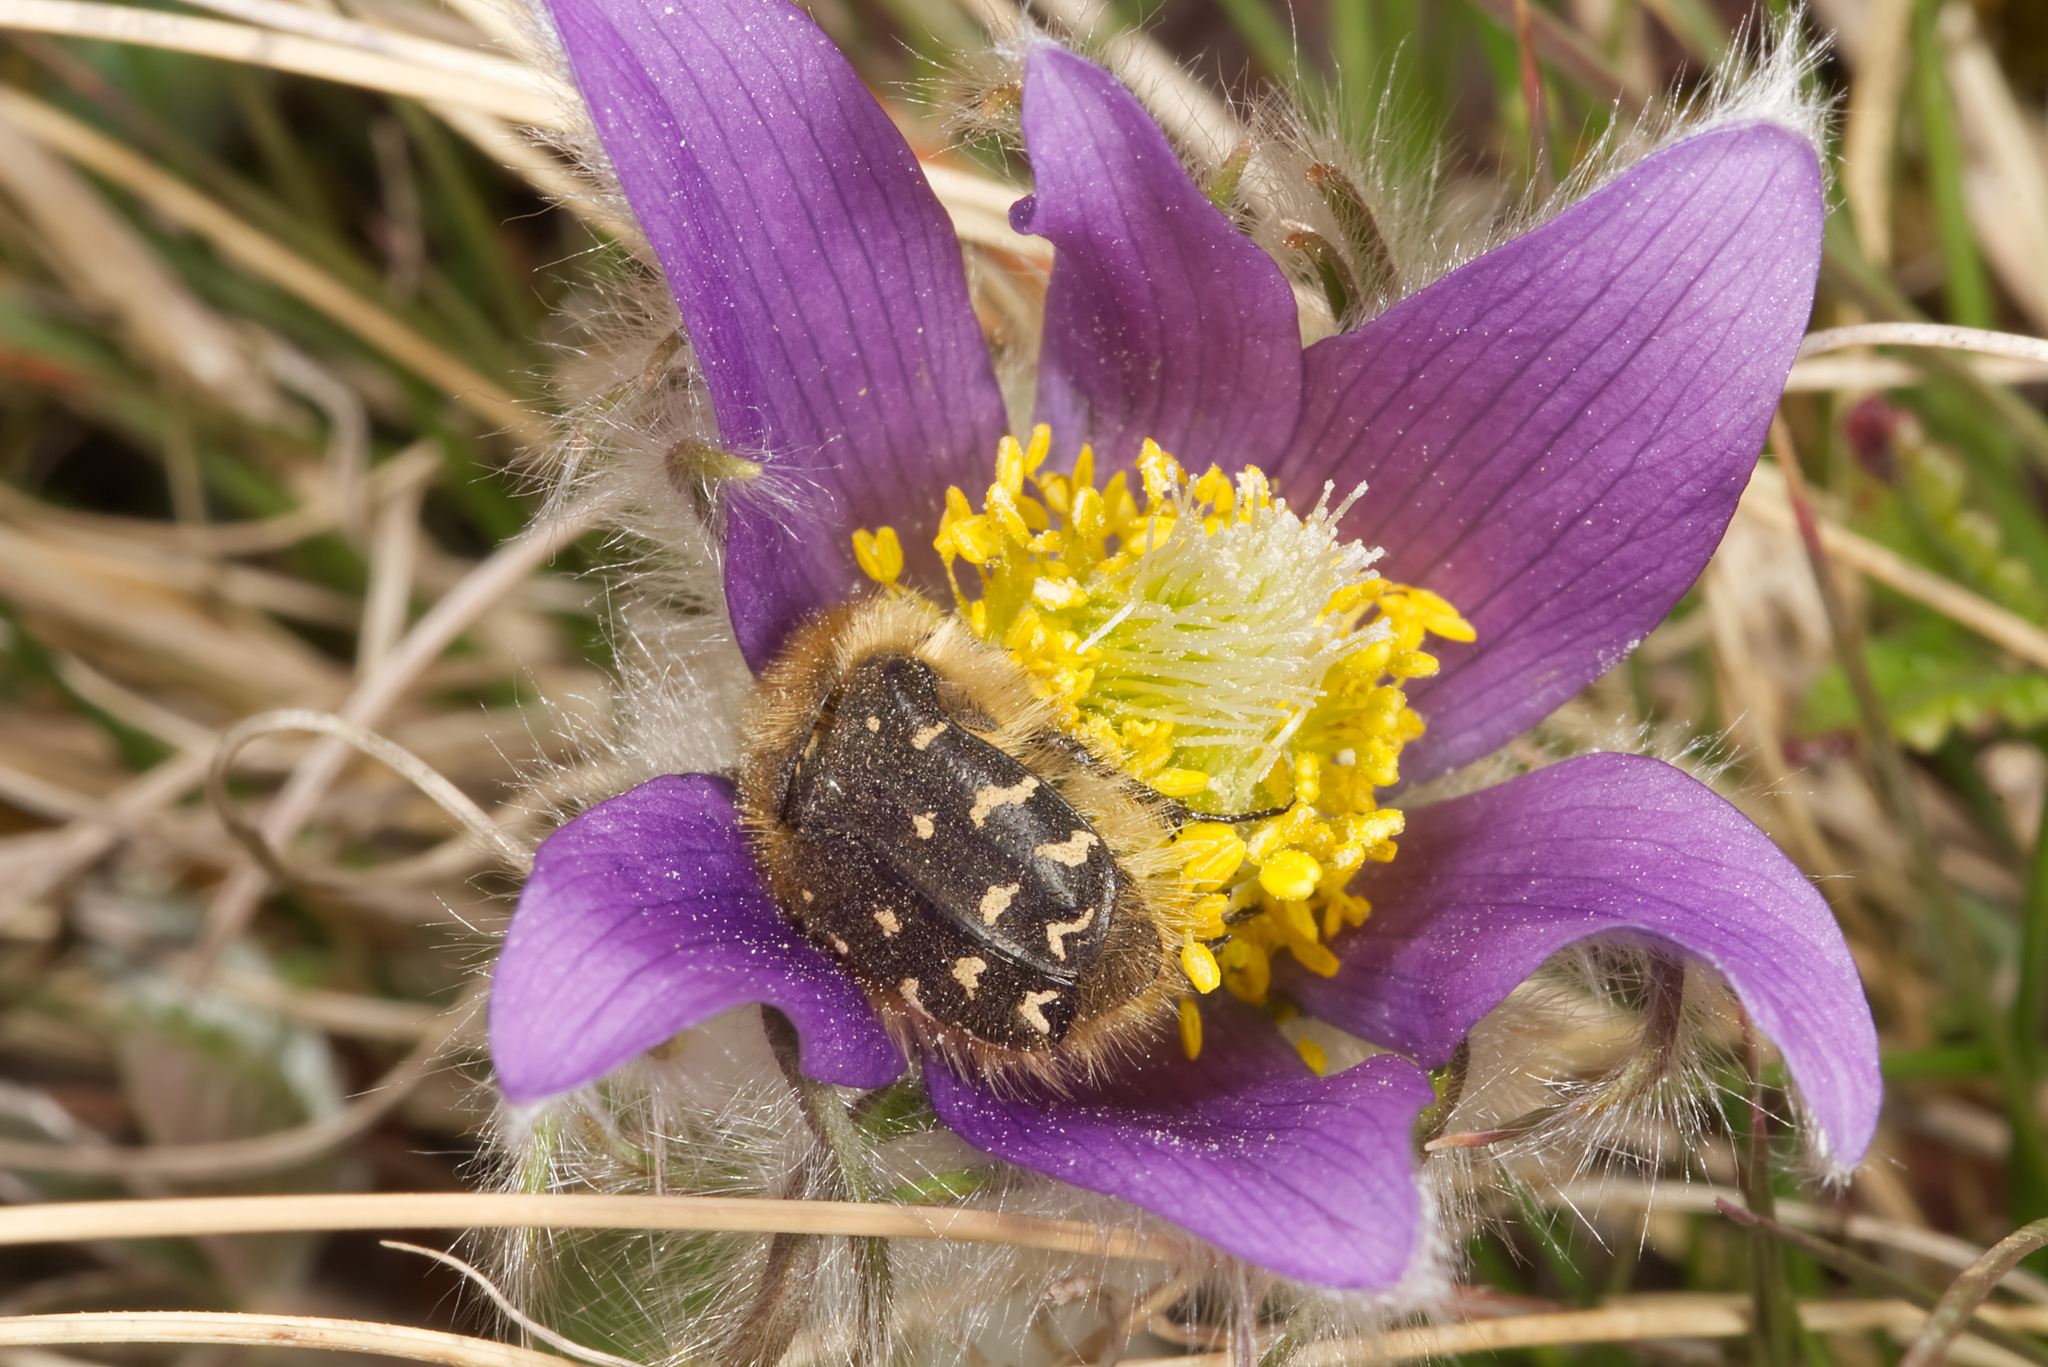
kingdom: Animalia
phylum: Arthropoda
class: Insecta
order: Coleoptera
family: Scarabaeidae
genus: Tropinota
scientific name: Tropinota hirta
